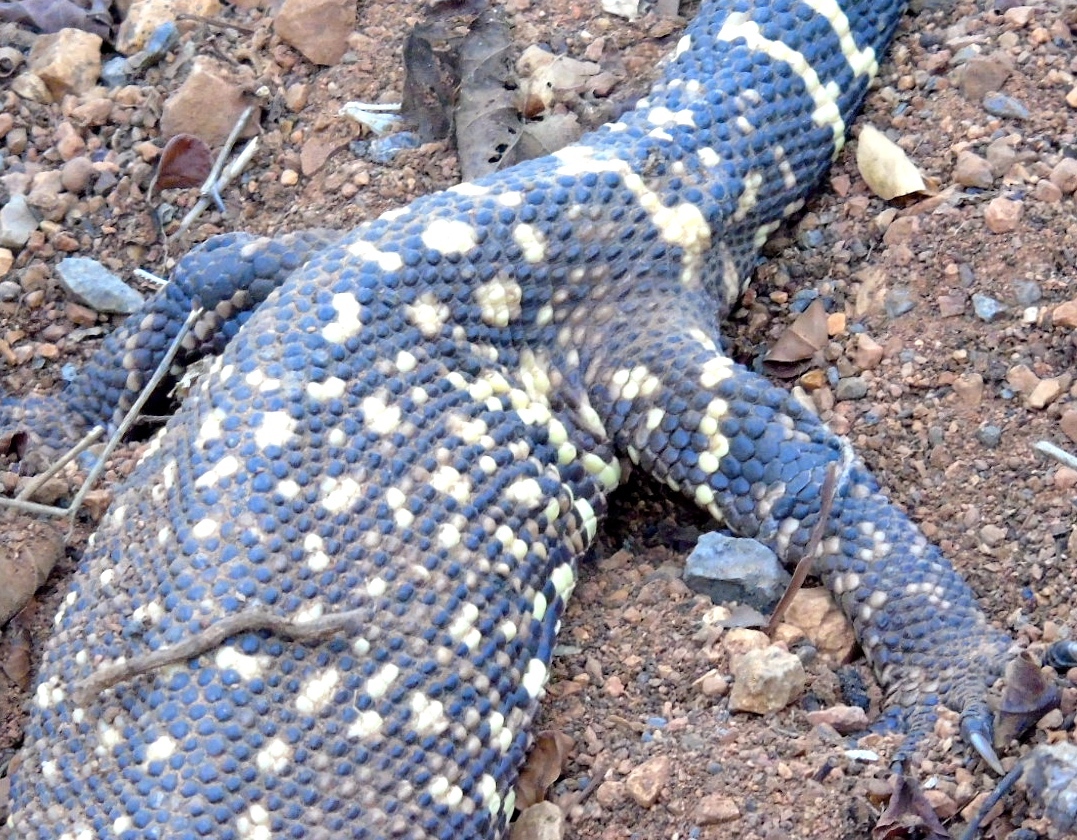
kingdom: Animalia
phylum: Chordata
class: Squamata
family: Helodermatidae
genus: Heloderma
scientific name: Heloderma horridum
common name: Mexican beaded lizard
